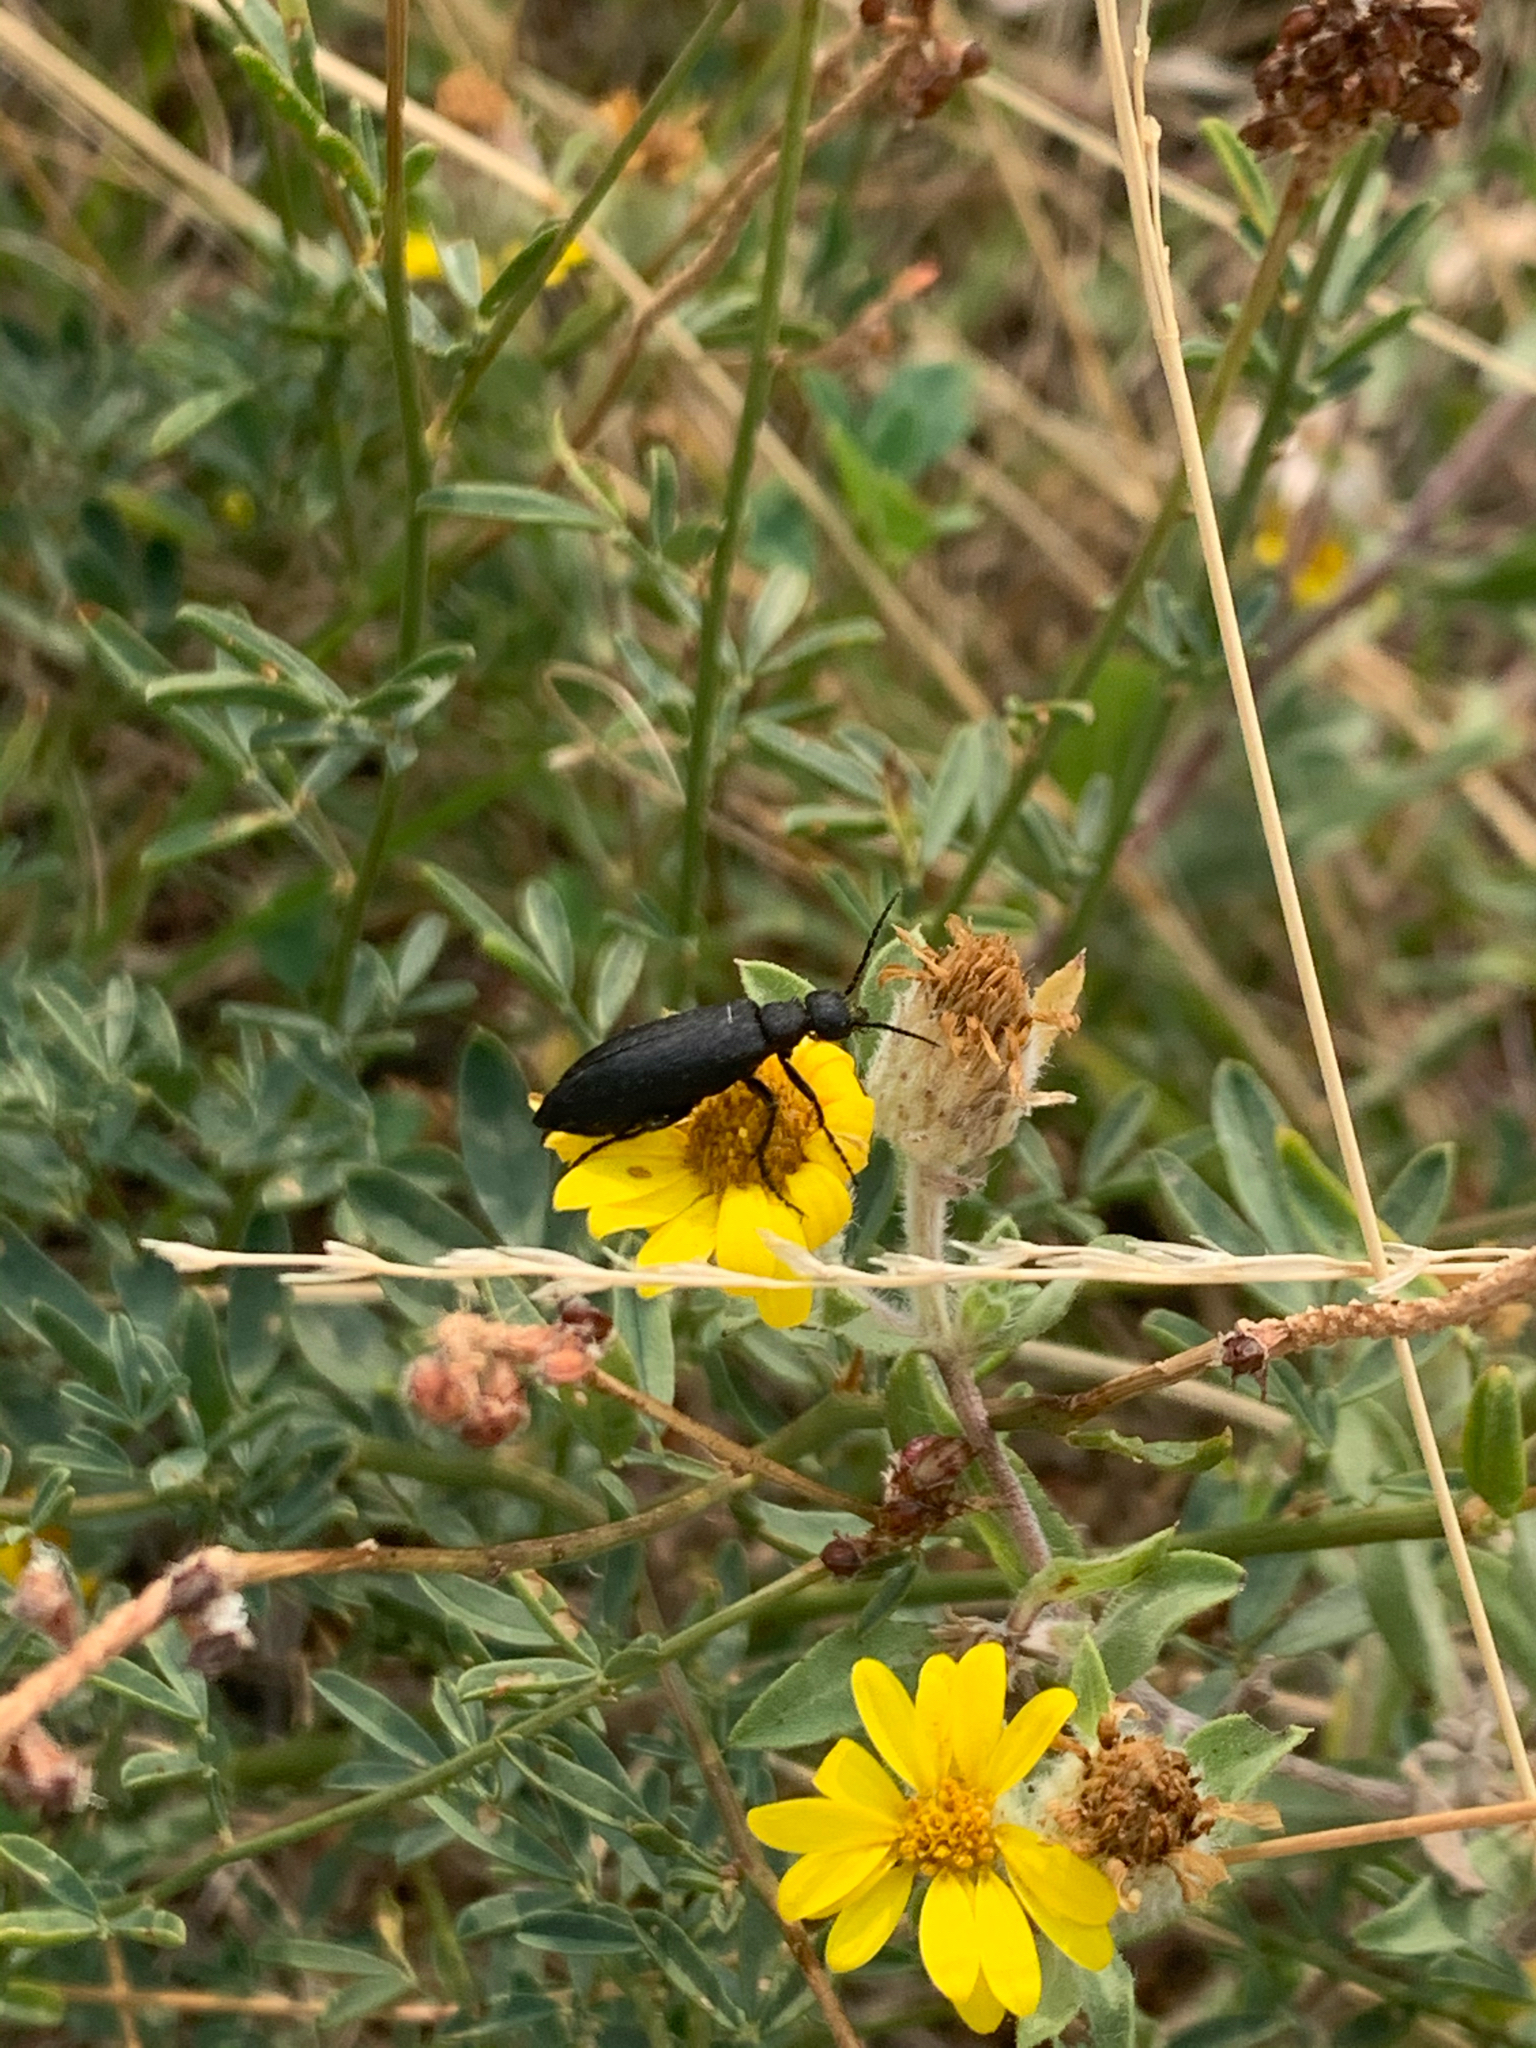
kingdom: Animalia
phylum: Arthropoda
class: Insecta
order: Coleoptera
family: Meloidae
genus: Epicauta
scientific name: Epicauta pensylvanica
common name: Black blister beetle
